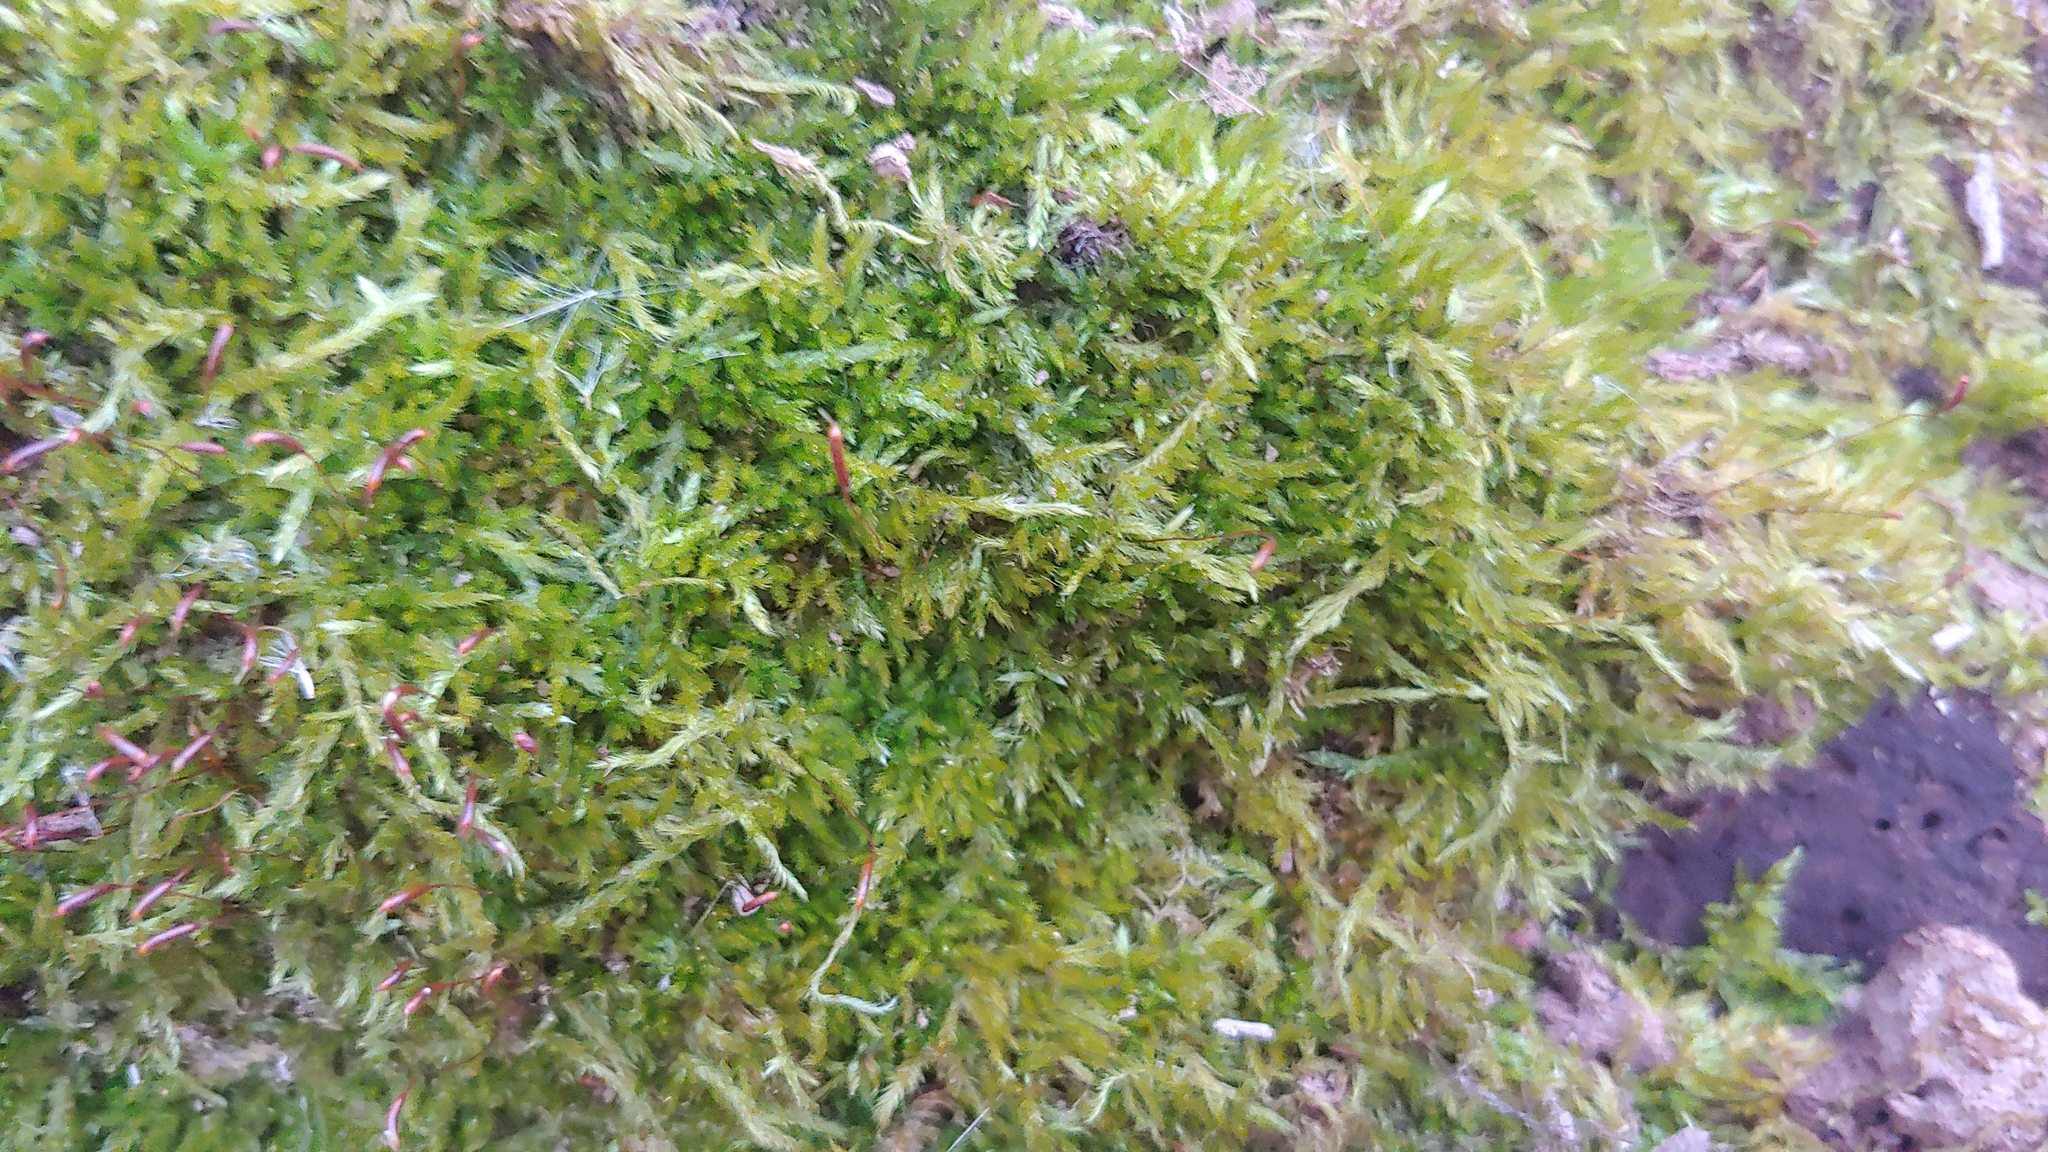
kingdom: Plantae
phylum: Bryophyta
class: Bryopsida
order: Hypnales
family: Callicladiaceae
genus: Callicladium
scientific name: Callicladium haldanianum
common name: Beautiful branch moss
